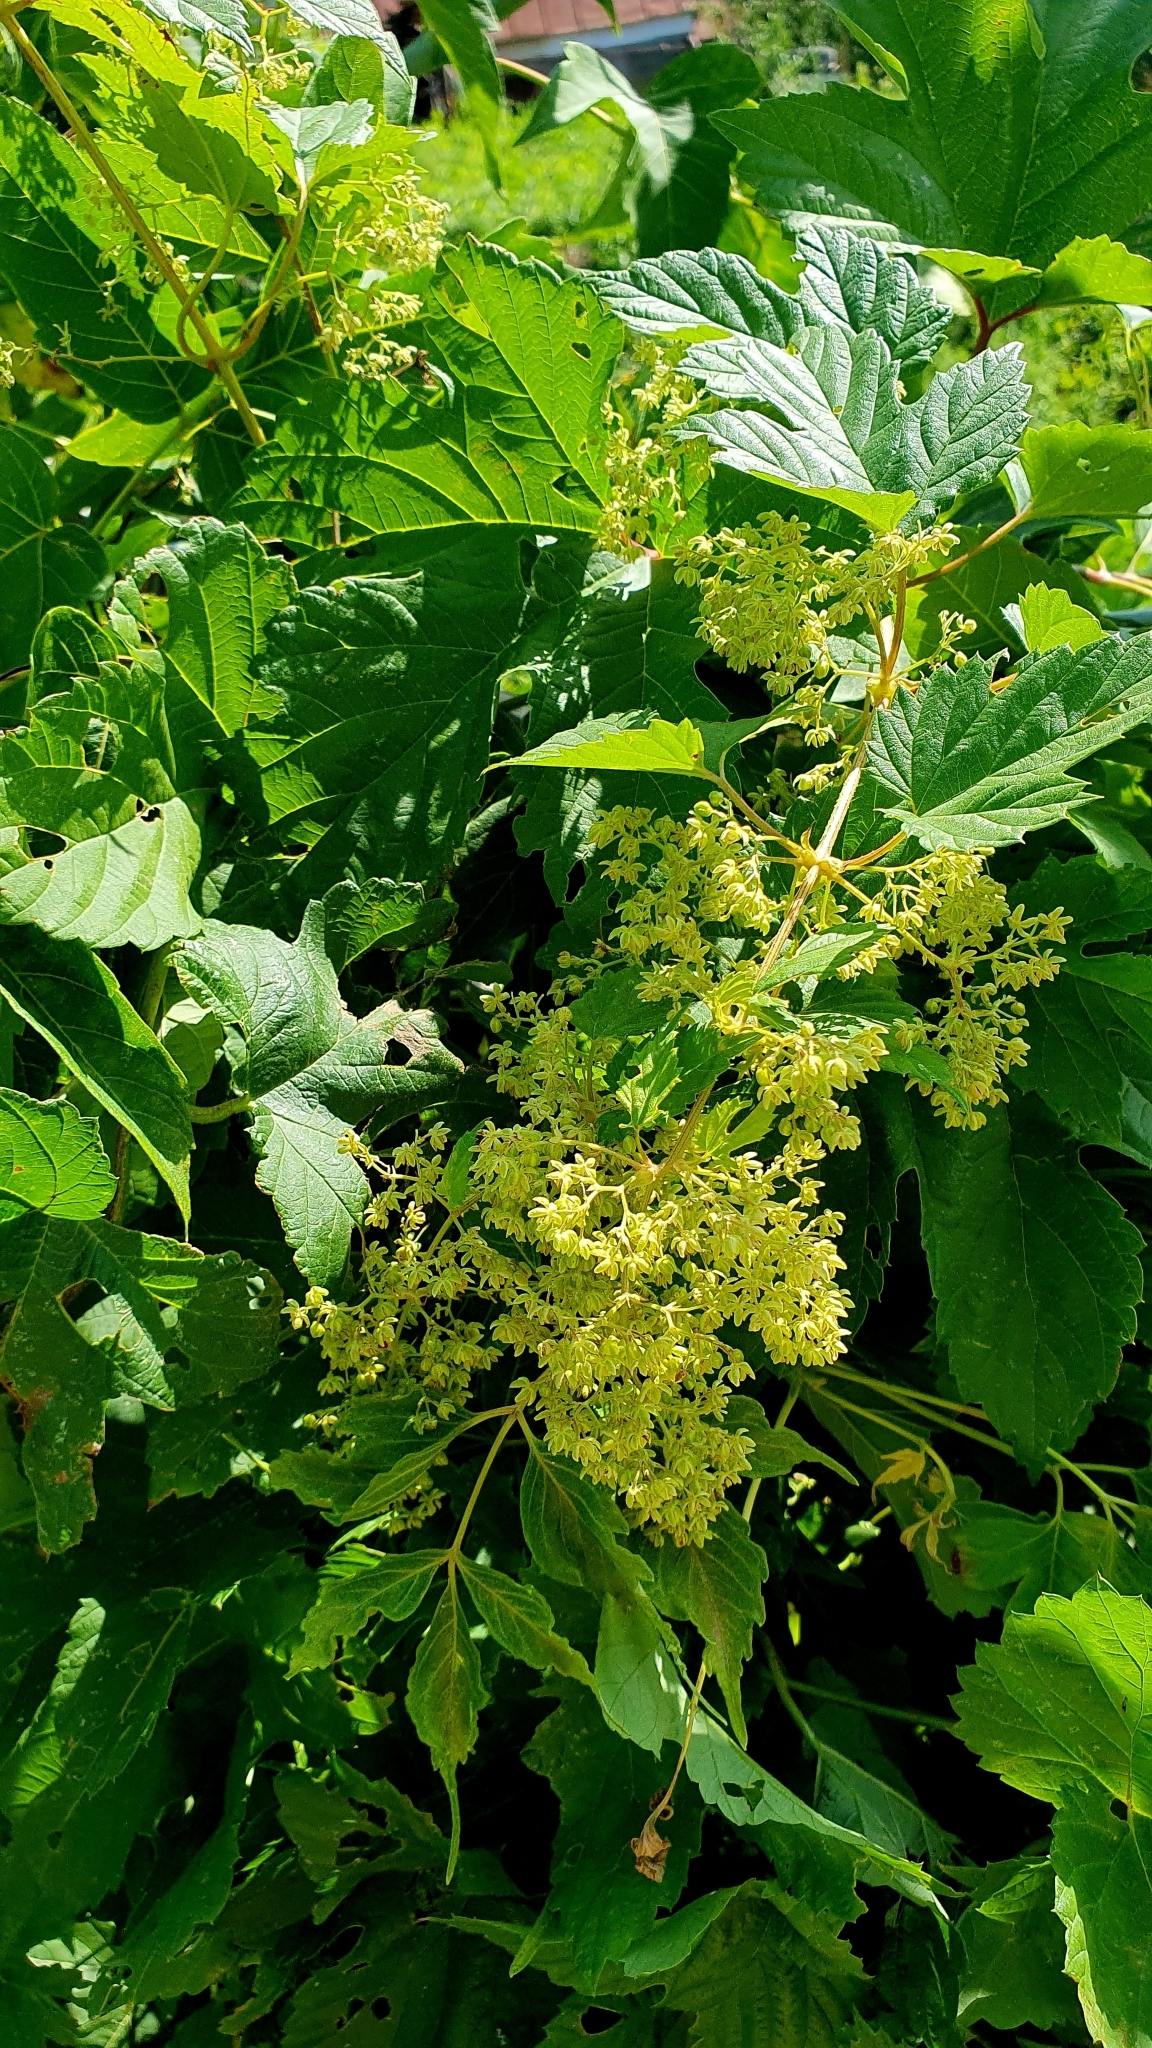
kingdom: Plantae
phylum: Tracheophyta
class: Magnoliopsida
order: Rosales
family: Cannabaceae
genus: Humulus
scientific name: Humulus lupulus
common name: Hop
